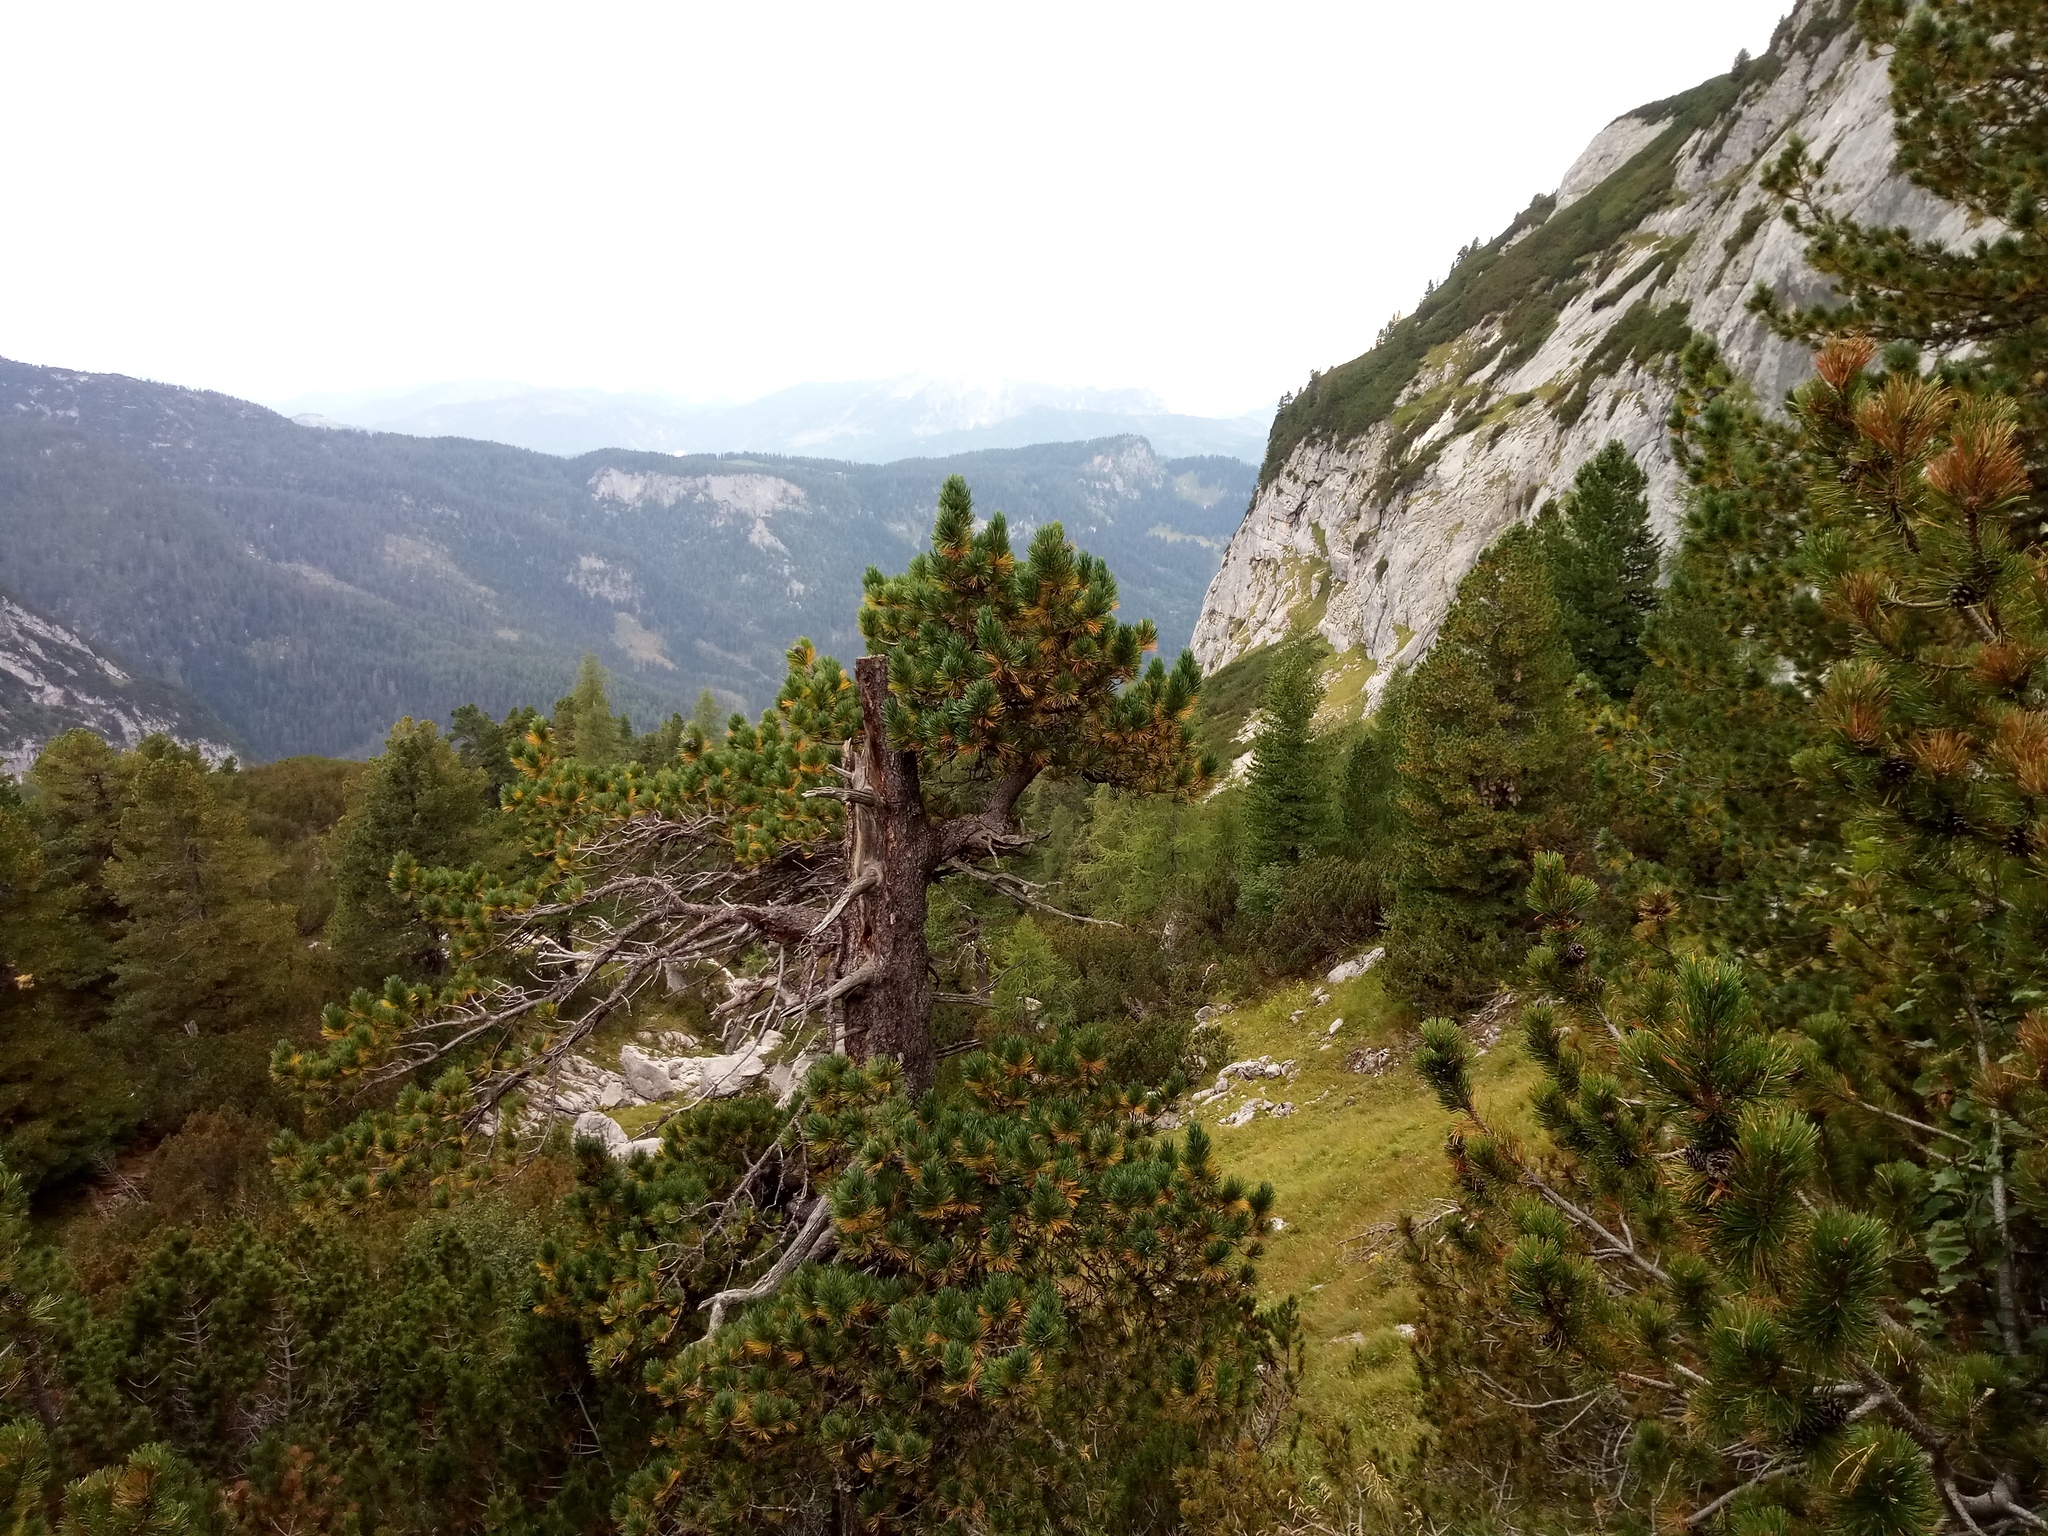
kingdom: Plantae
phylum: Tracheophyta
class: Pinopsida
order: Pinales
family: Pinaceae
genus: Pinus
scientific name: Pinus cembra
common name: Arolla pine
